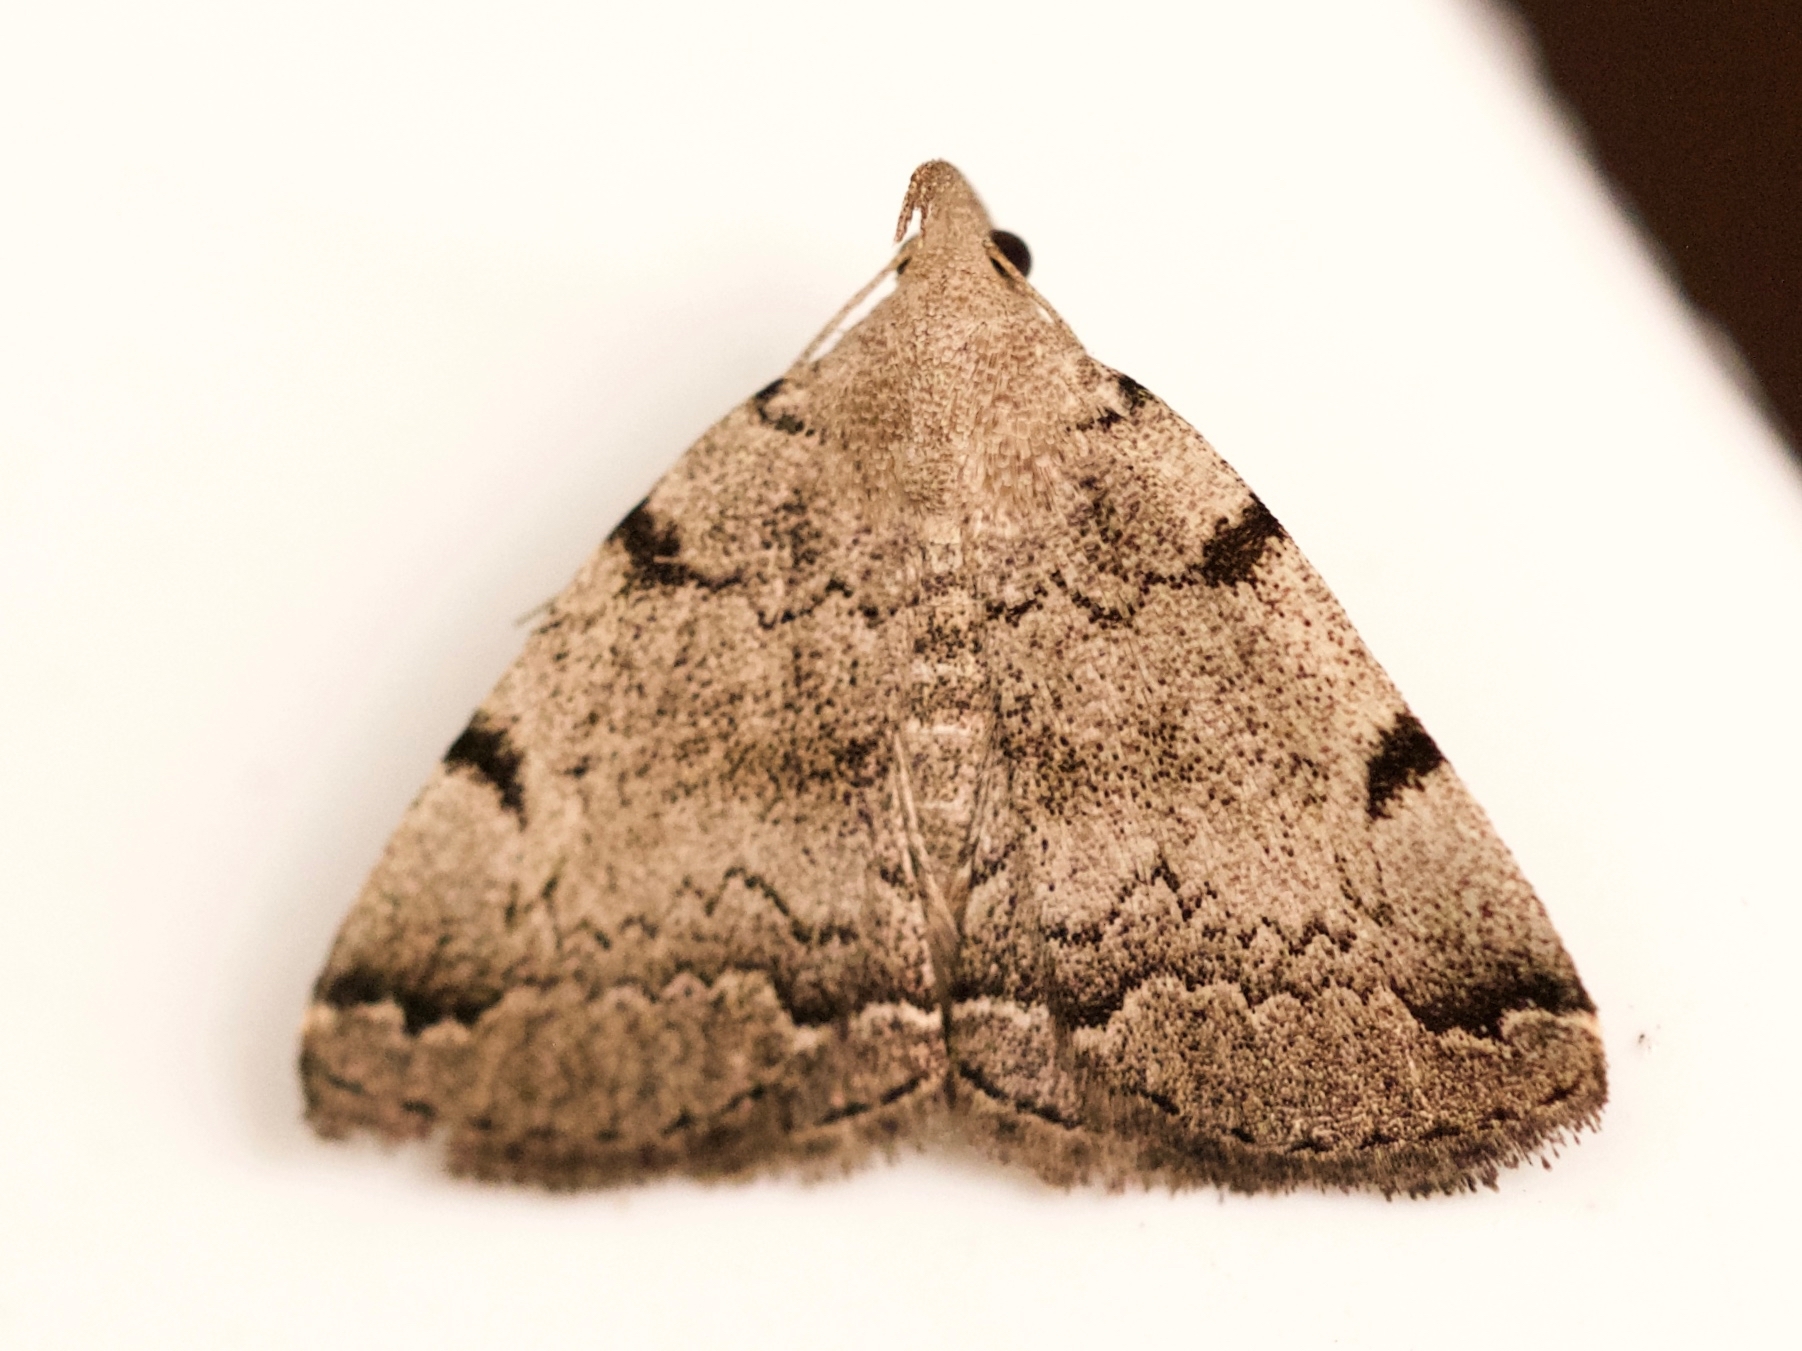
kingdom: Animalia
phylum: Arthropoda
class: Insecta
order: Lepidoptera
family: Erebidae
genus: Zanclognatha
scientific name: Zanclognatha theralis
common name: Flagged fan-foot
